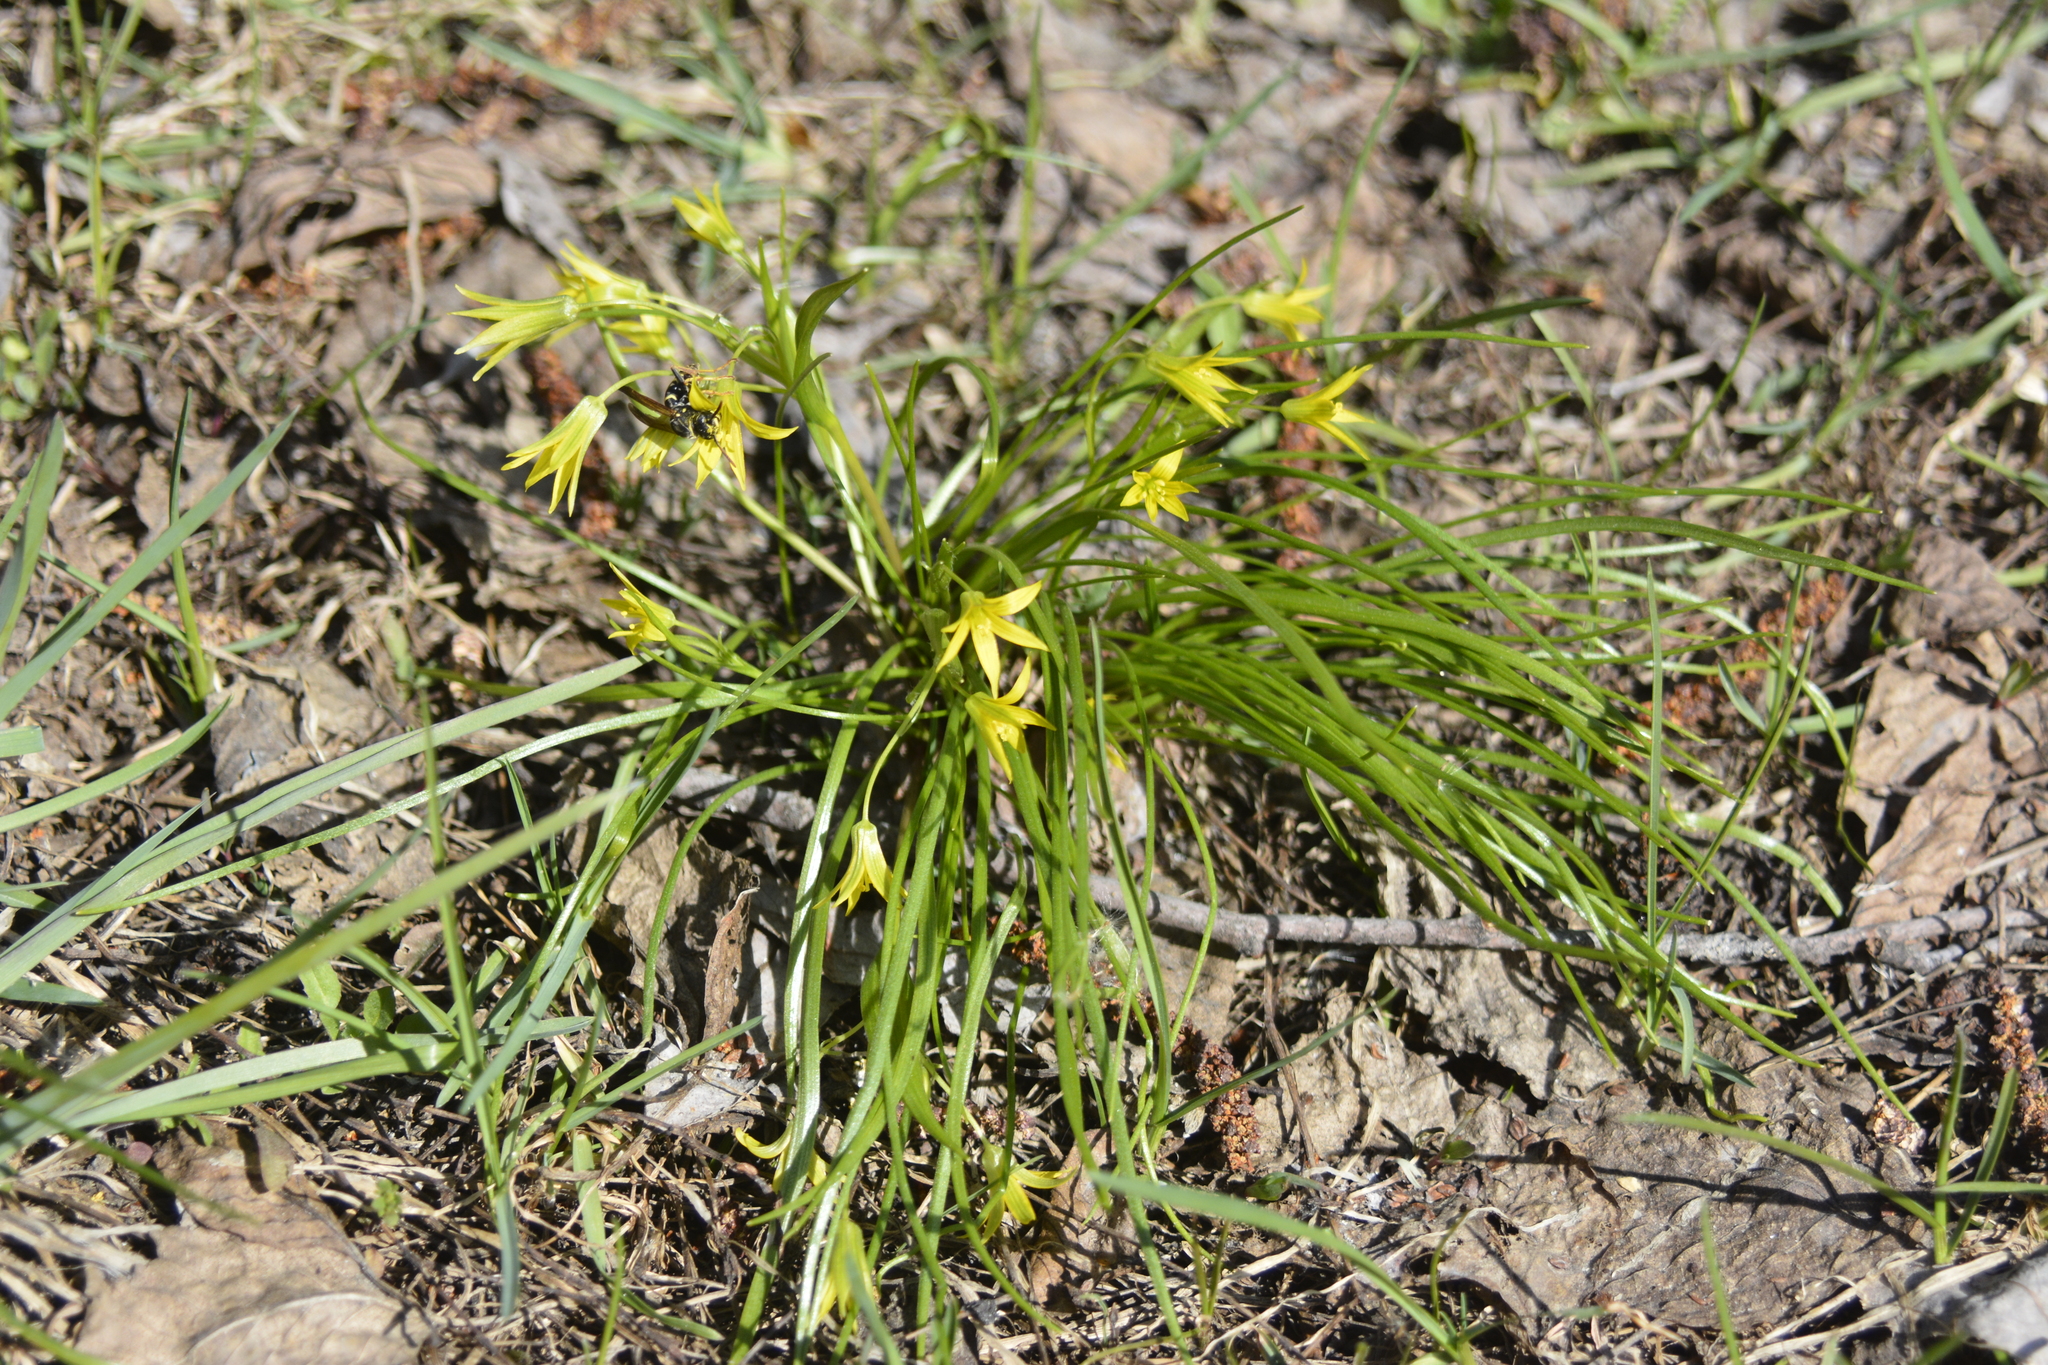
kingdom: Plantae
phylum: Tracheophyta
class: Liliopsida
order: Liliales
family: Liliaceae
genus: Gagea
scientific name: Gagea minima
